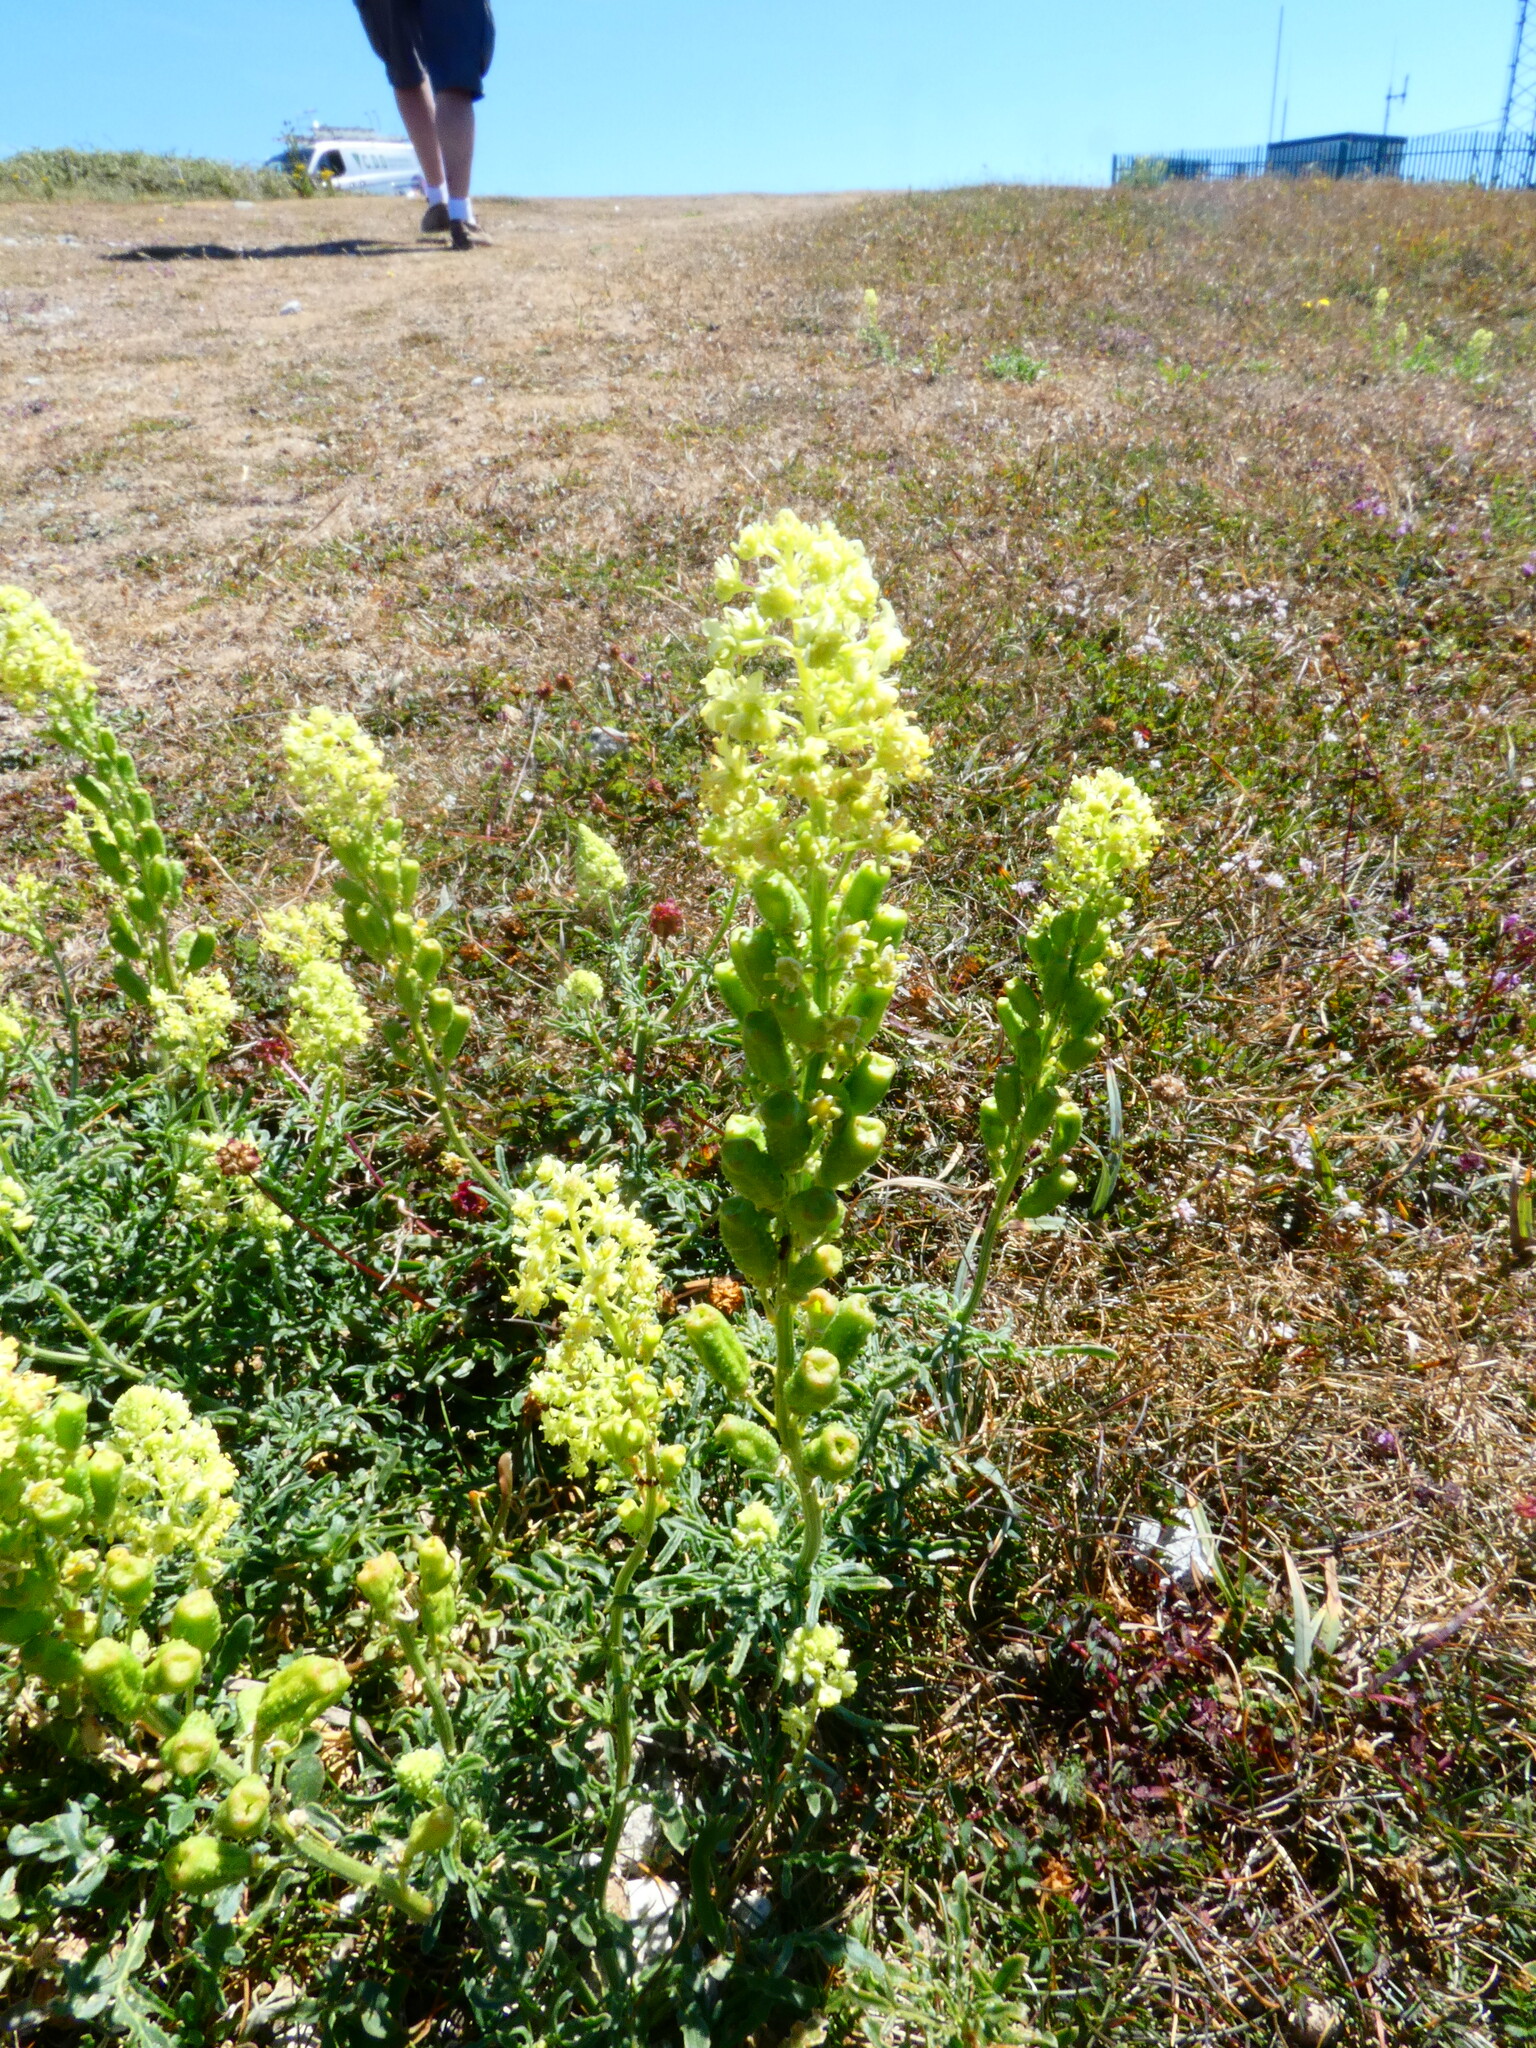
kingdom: Plantae
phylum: Tracheophyta
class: Magnoliopsida
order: Brassicales
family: Resedaceae
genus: Reseda
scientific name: Reseda lutea
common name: Wild mignonette
